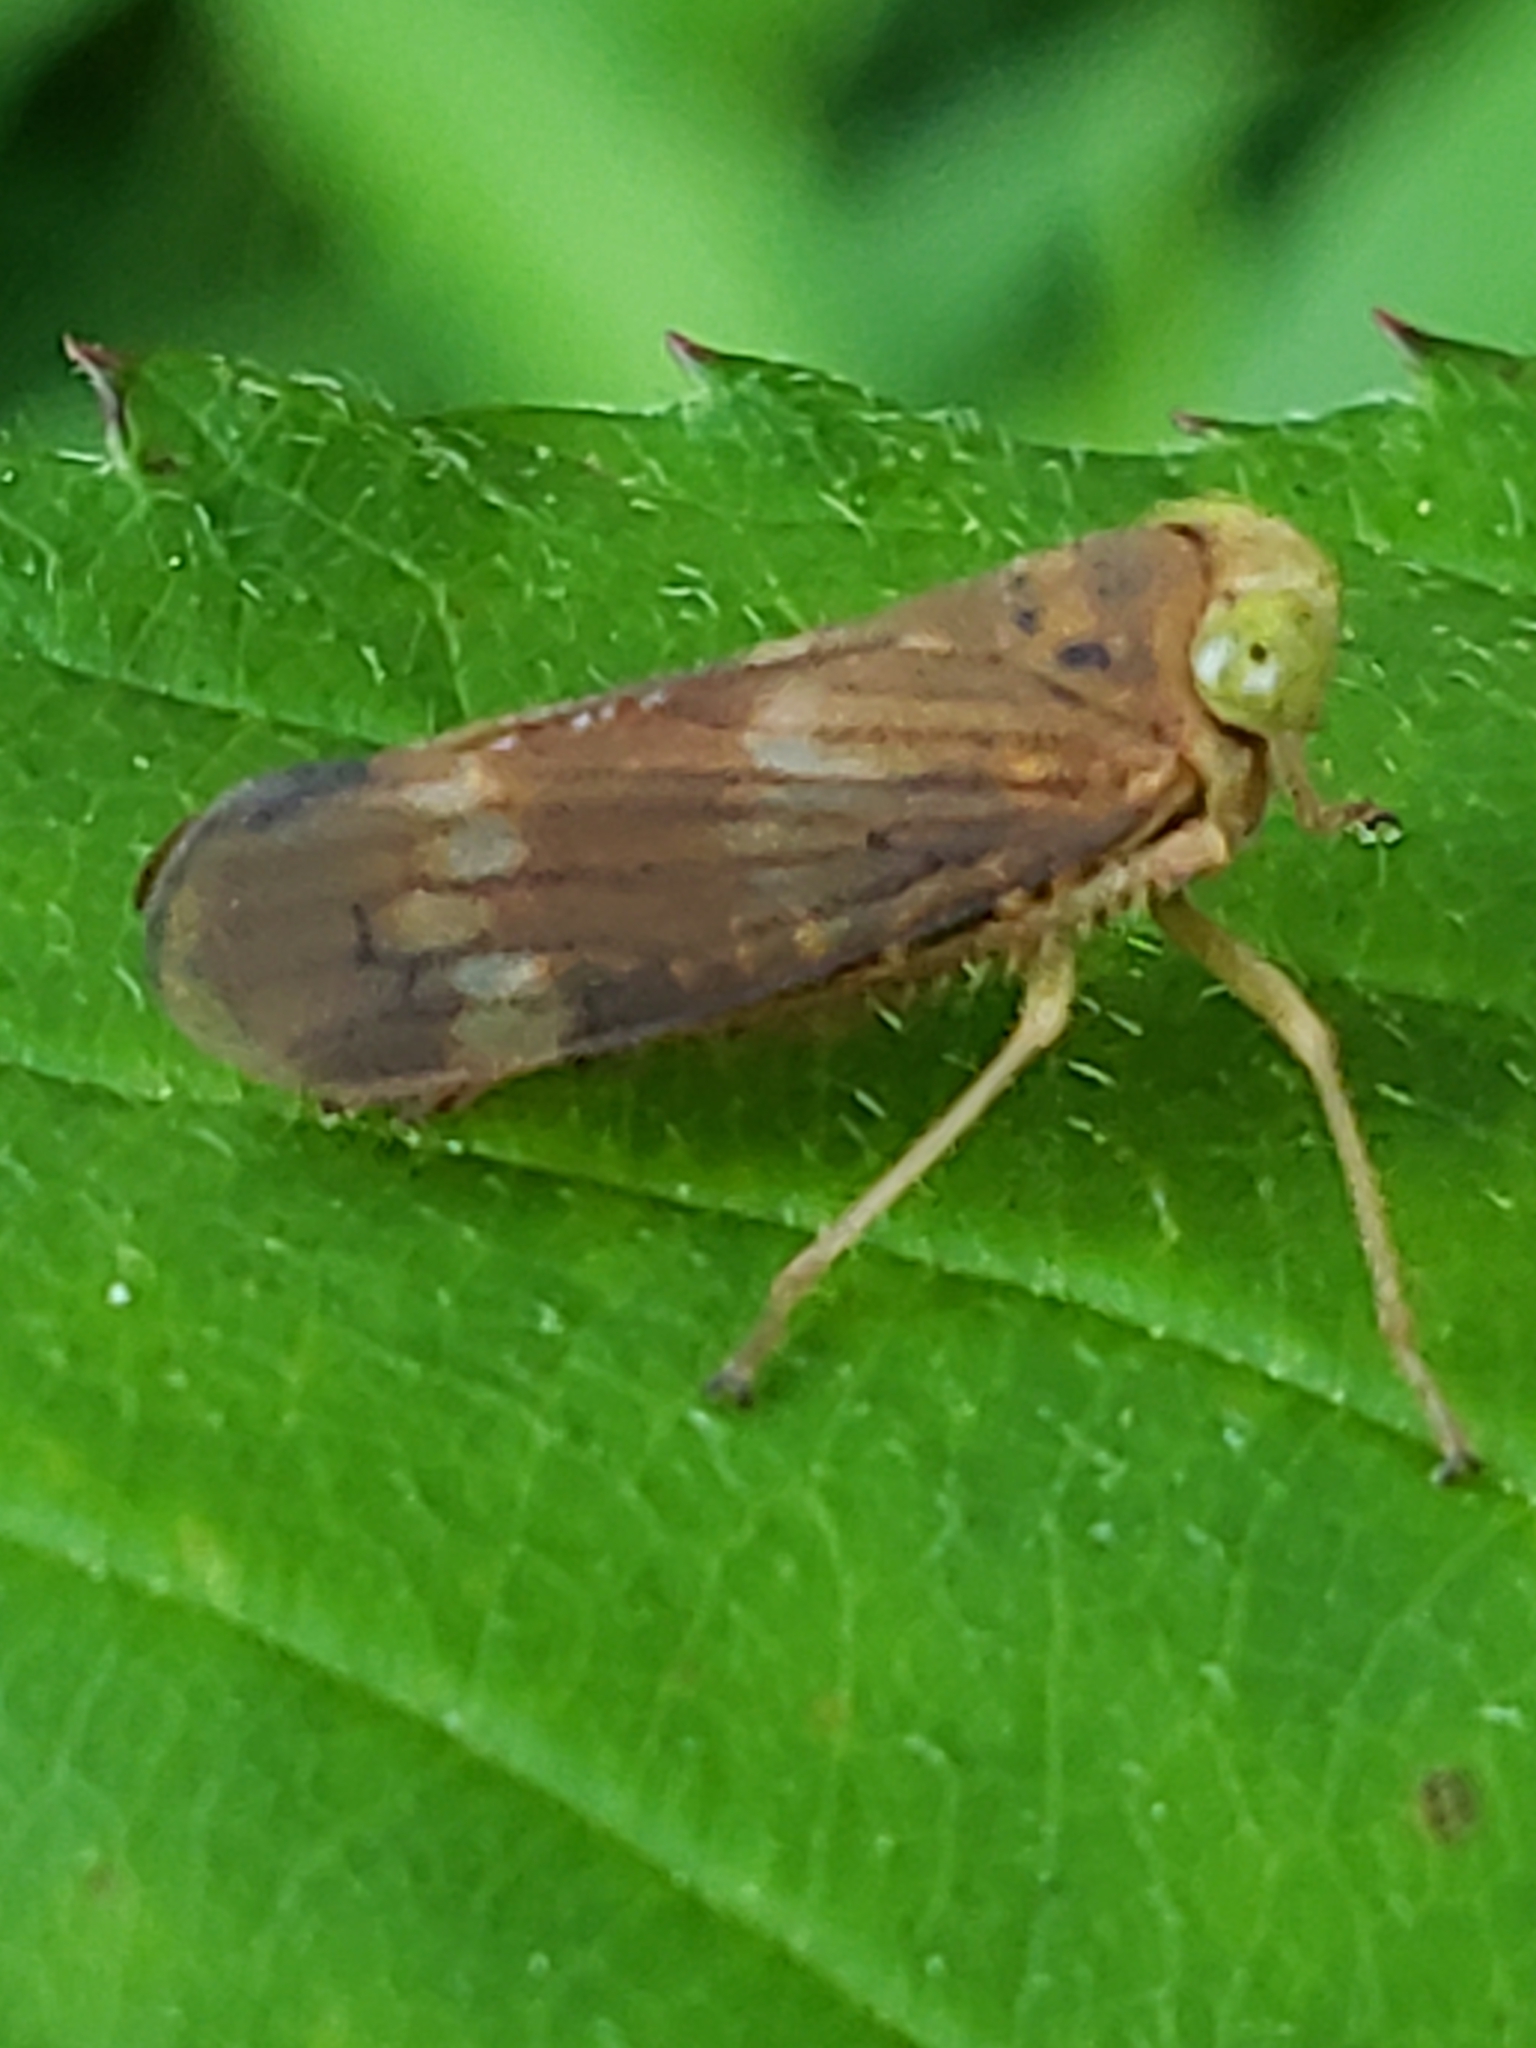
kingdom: Animalia
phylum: Arthropoda
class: Insecta
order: Hemiptera
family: Cicadellidae
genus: Jikradia
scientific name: Jikradia olitoria
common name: Coppery leafhopper
